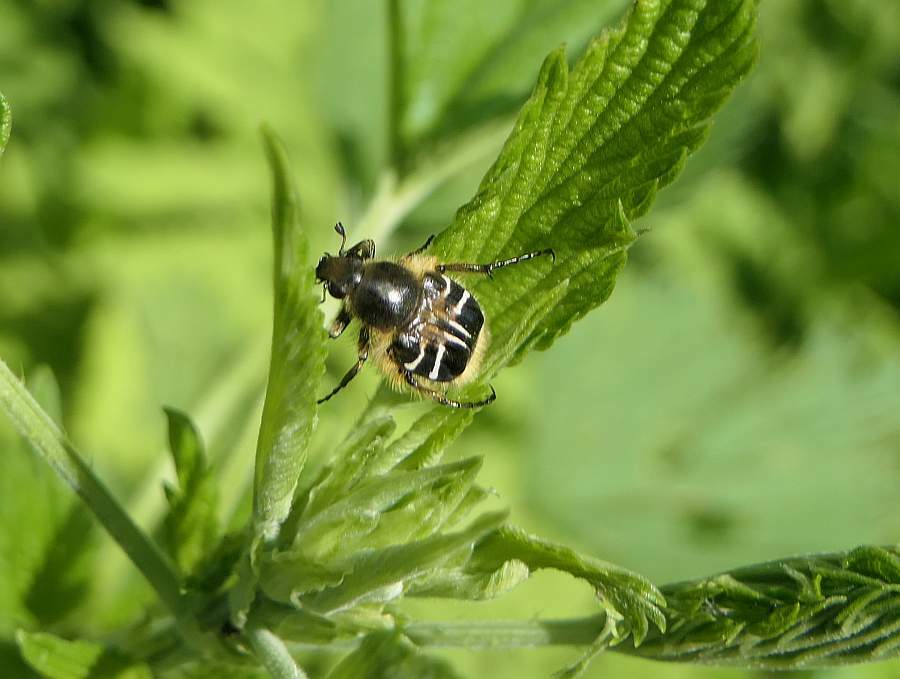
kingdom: Animalia
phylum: Arthropoda
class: Insecta
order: Coleoptera
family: Scarabaeidae
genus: Trichiotinus
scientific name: Trichiotinus assimilis
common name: Bee-mimic beetle
